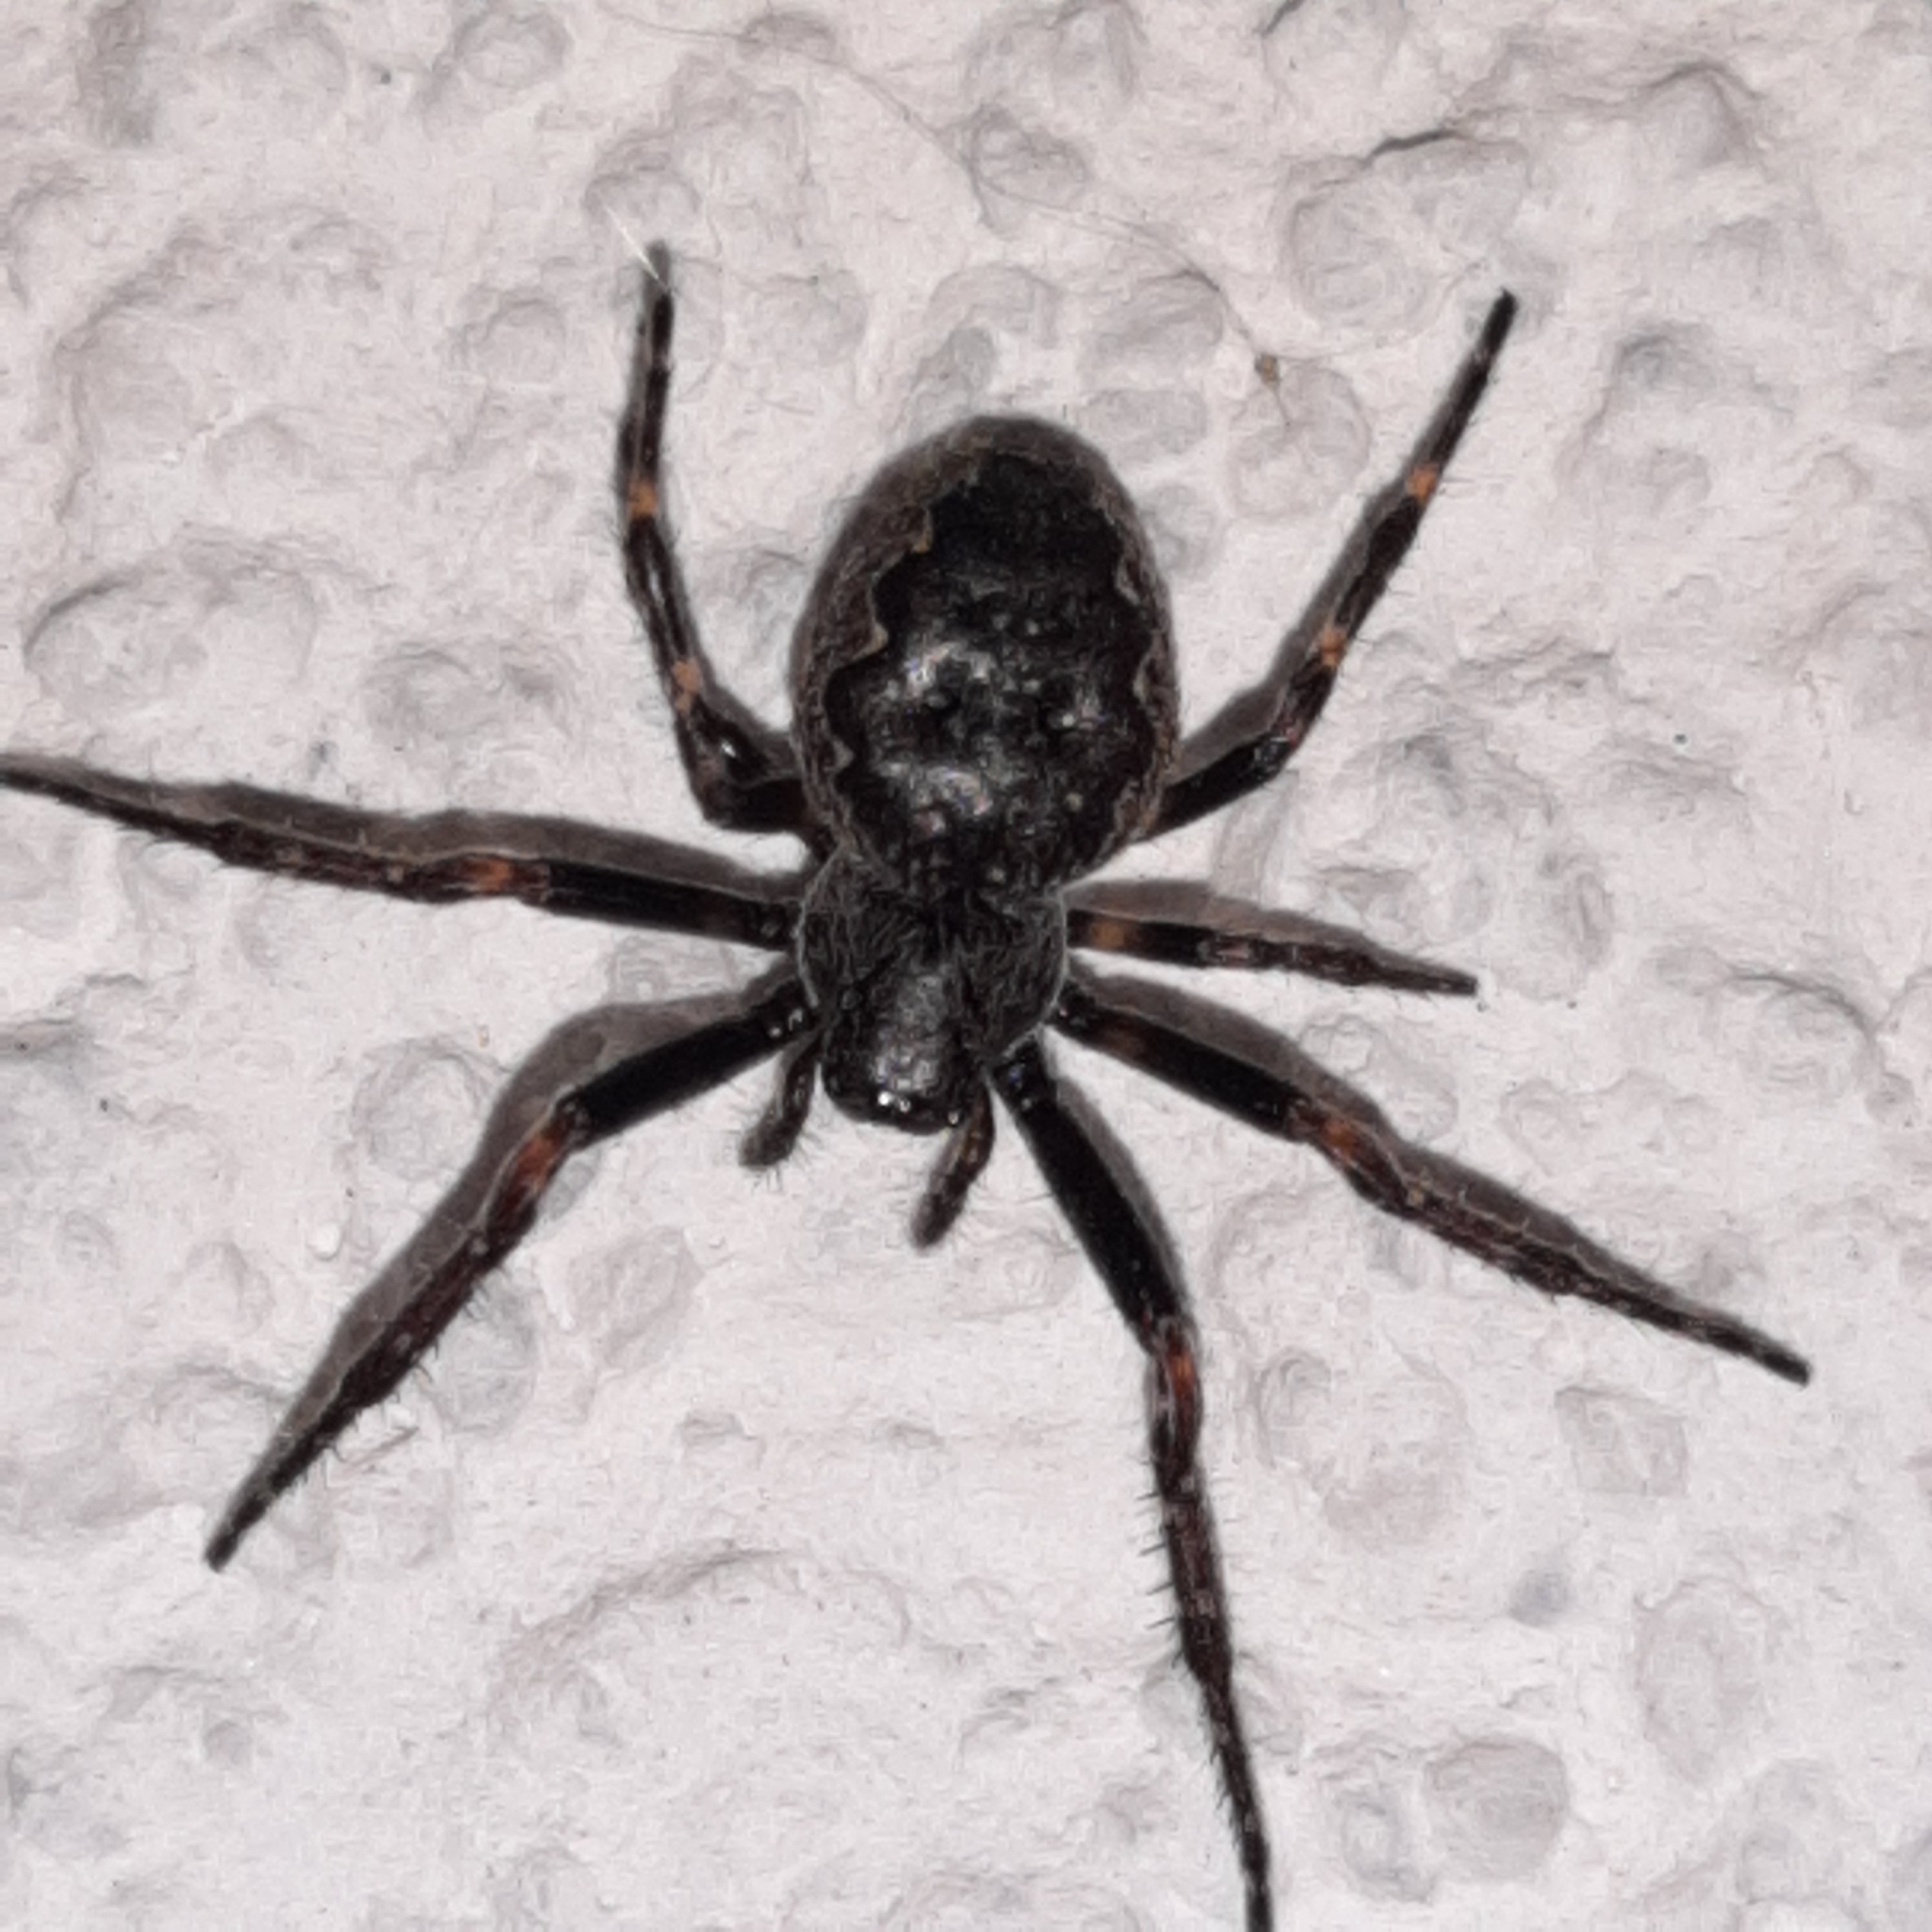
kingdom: Animalia
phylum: Arthropoda
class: Arachnida
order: Araneae
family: Araneidae
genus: Nuctenea
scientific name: Nuctenea umbratica
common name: Toad spider
